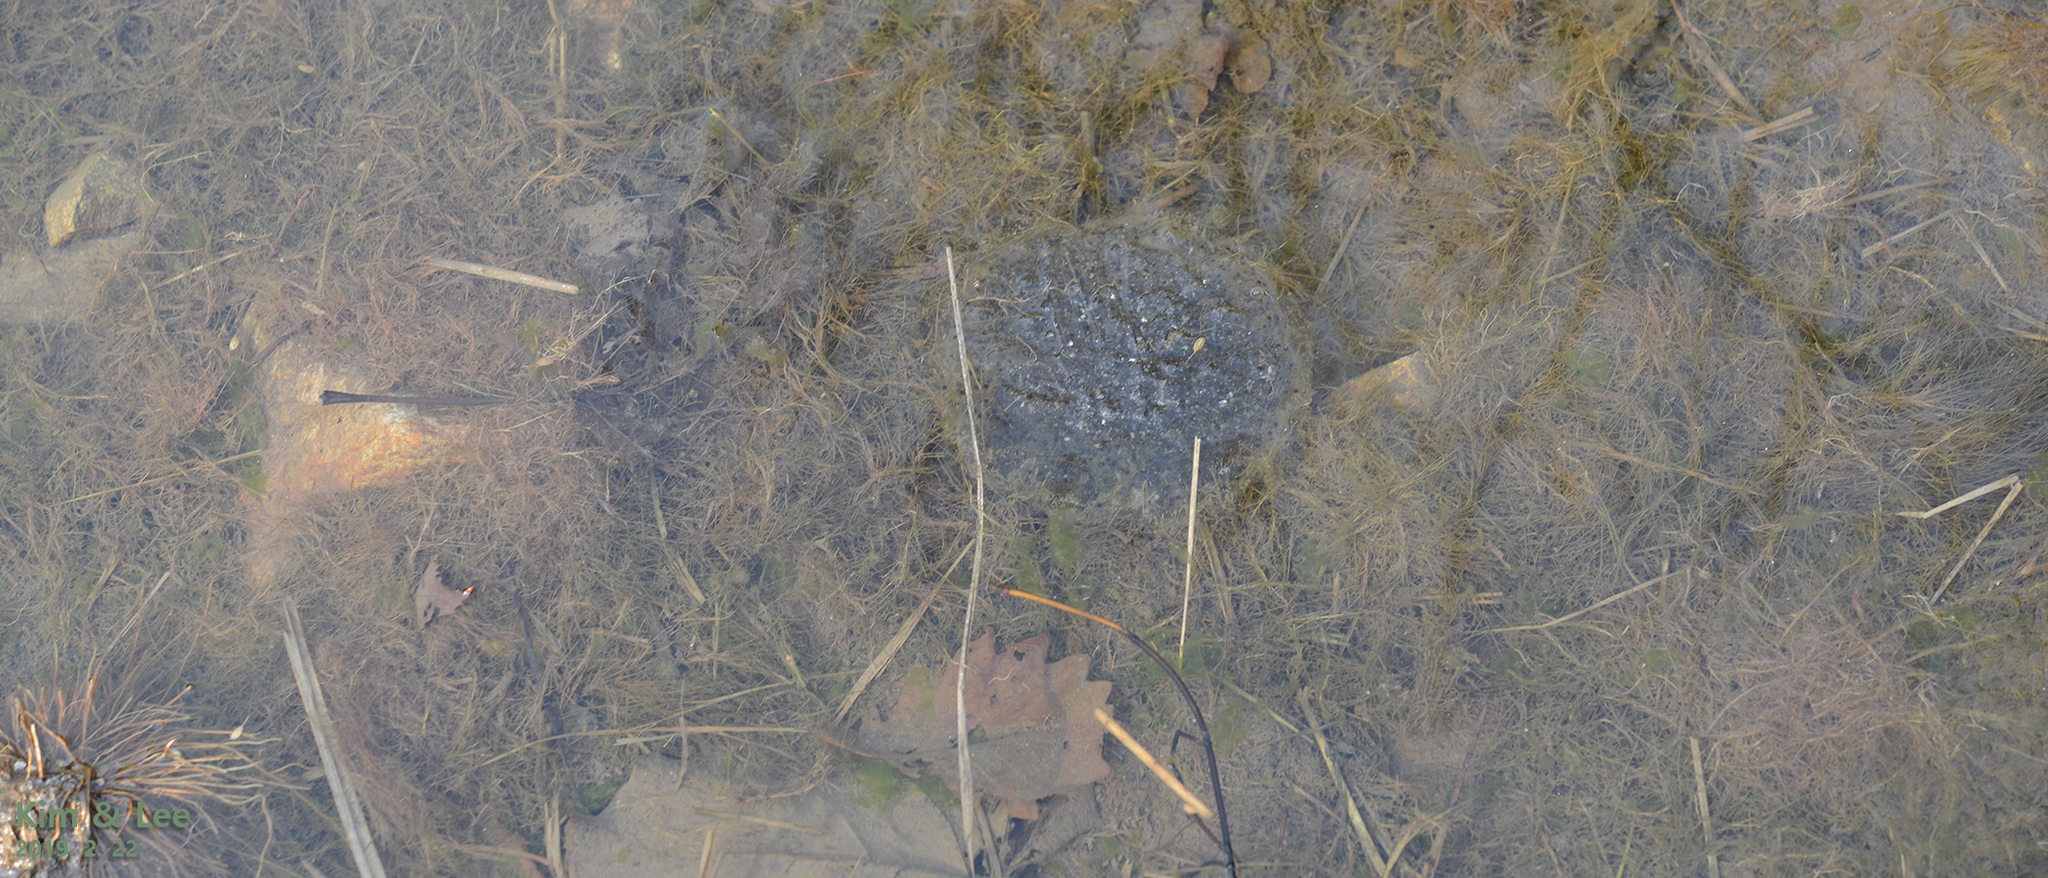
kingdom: Animalia
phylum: Chordata
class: Amphibia
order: Anura
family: Ranidae
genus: Rana
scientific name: Rana uenoi
